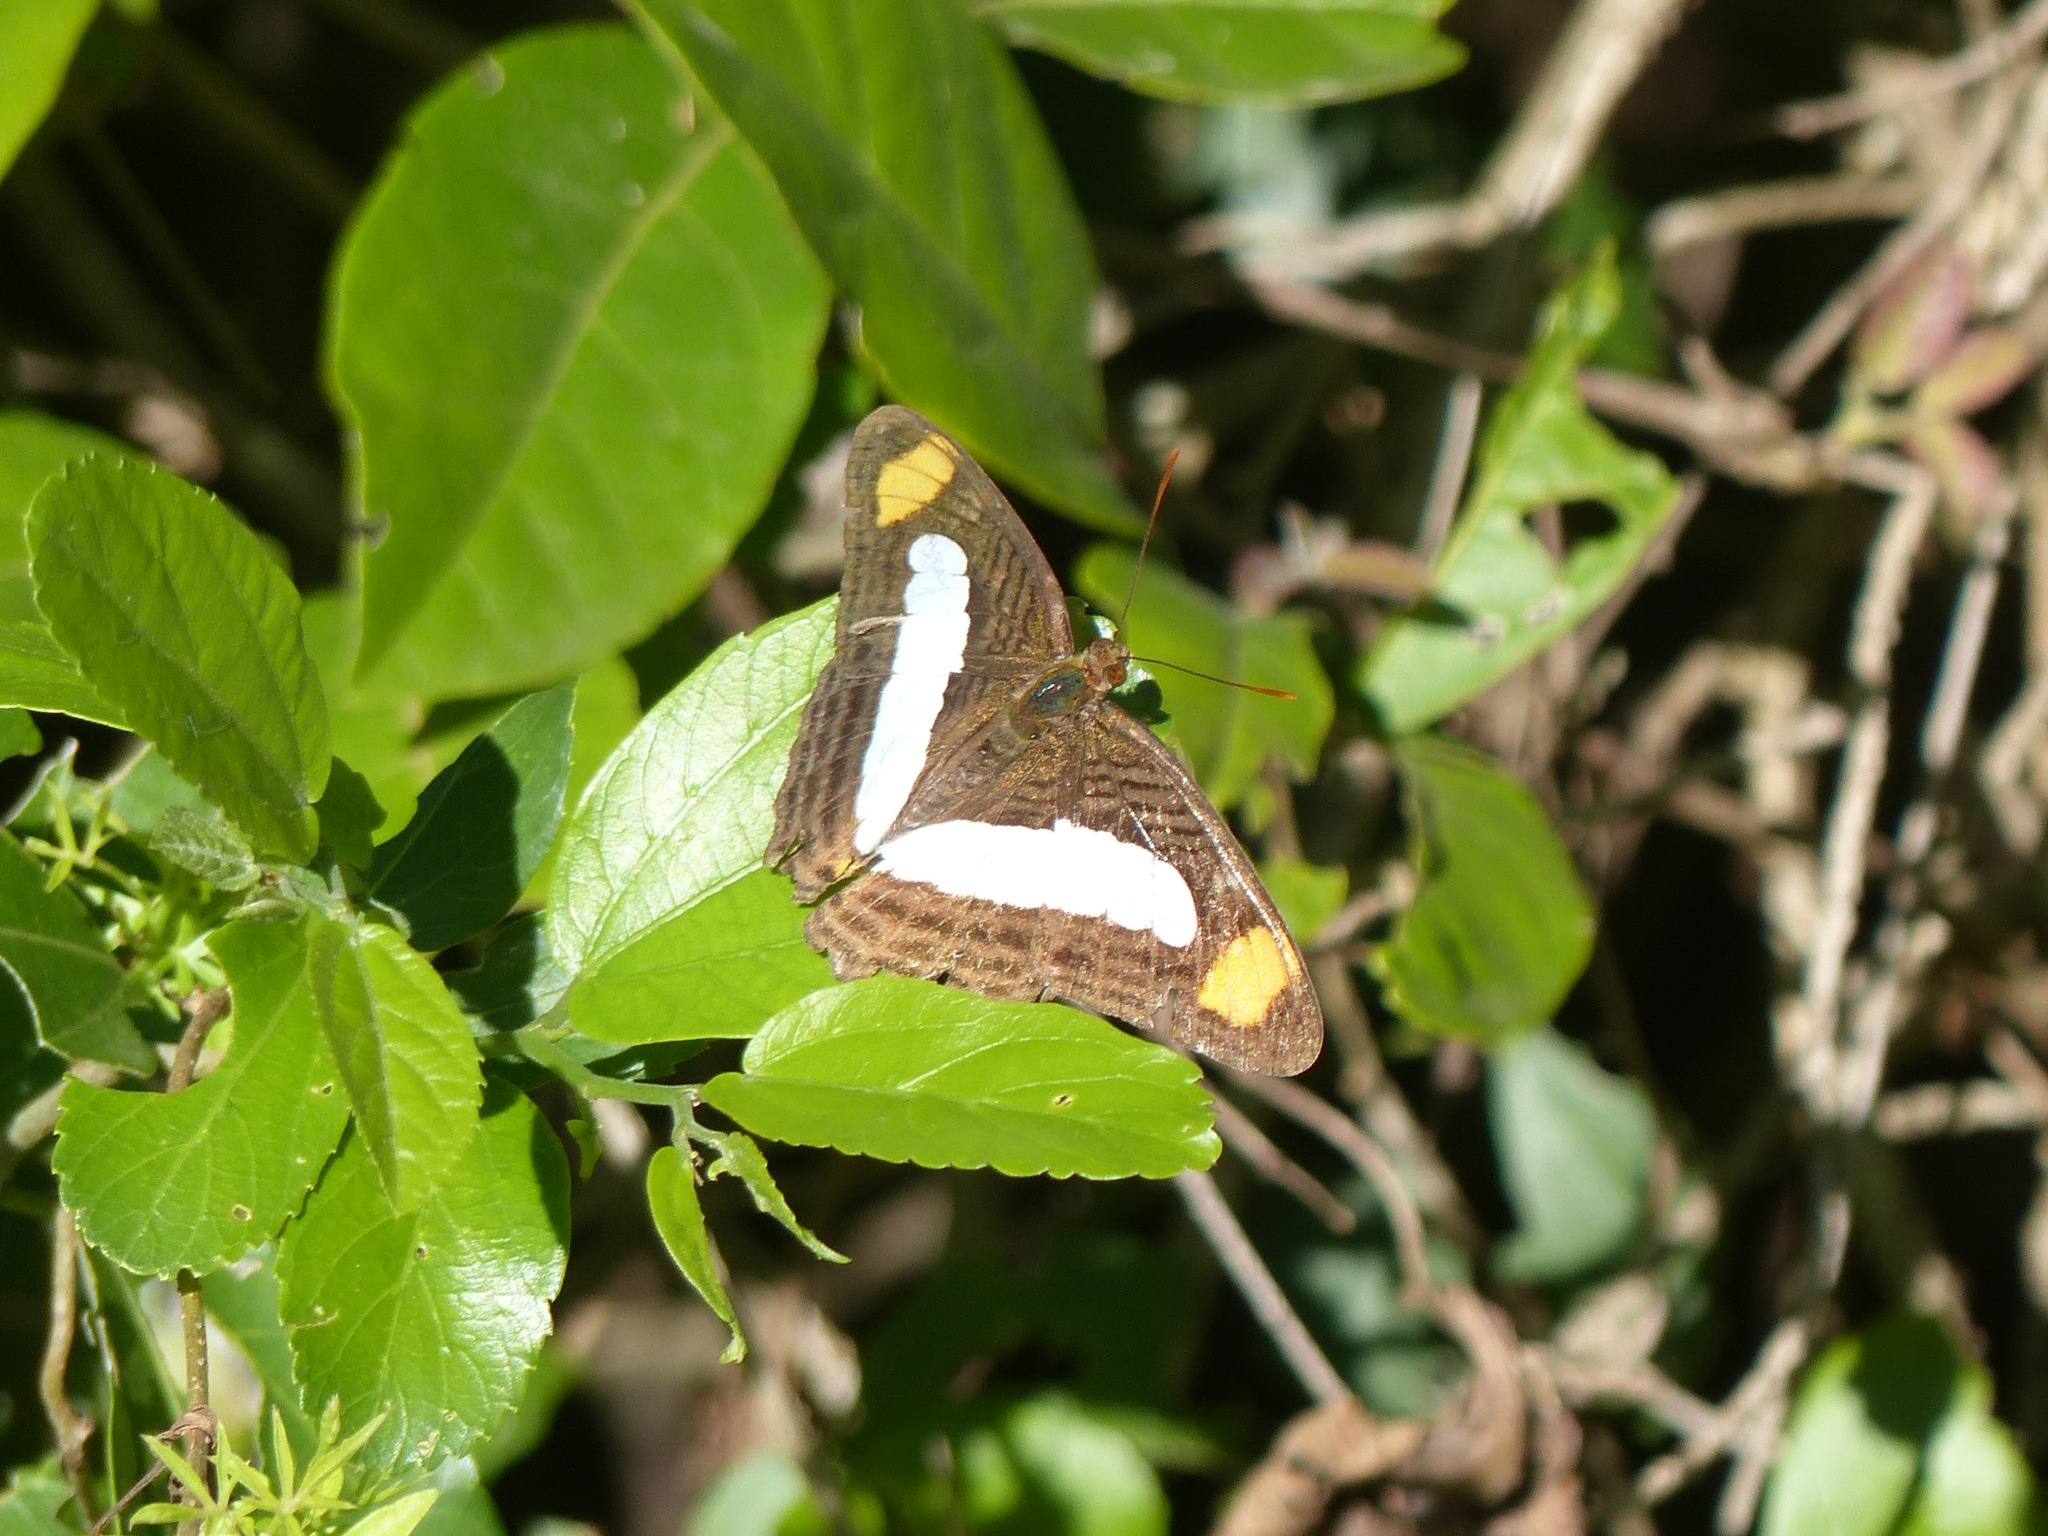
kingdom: Animalia
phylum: Arthropoda
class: Insecta
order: Lepidoptera
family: Nymphalidae
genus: Limenitis
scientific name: Limenitis iphiclus
